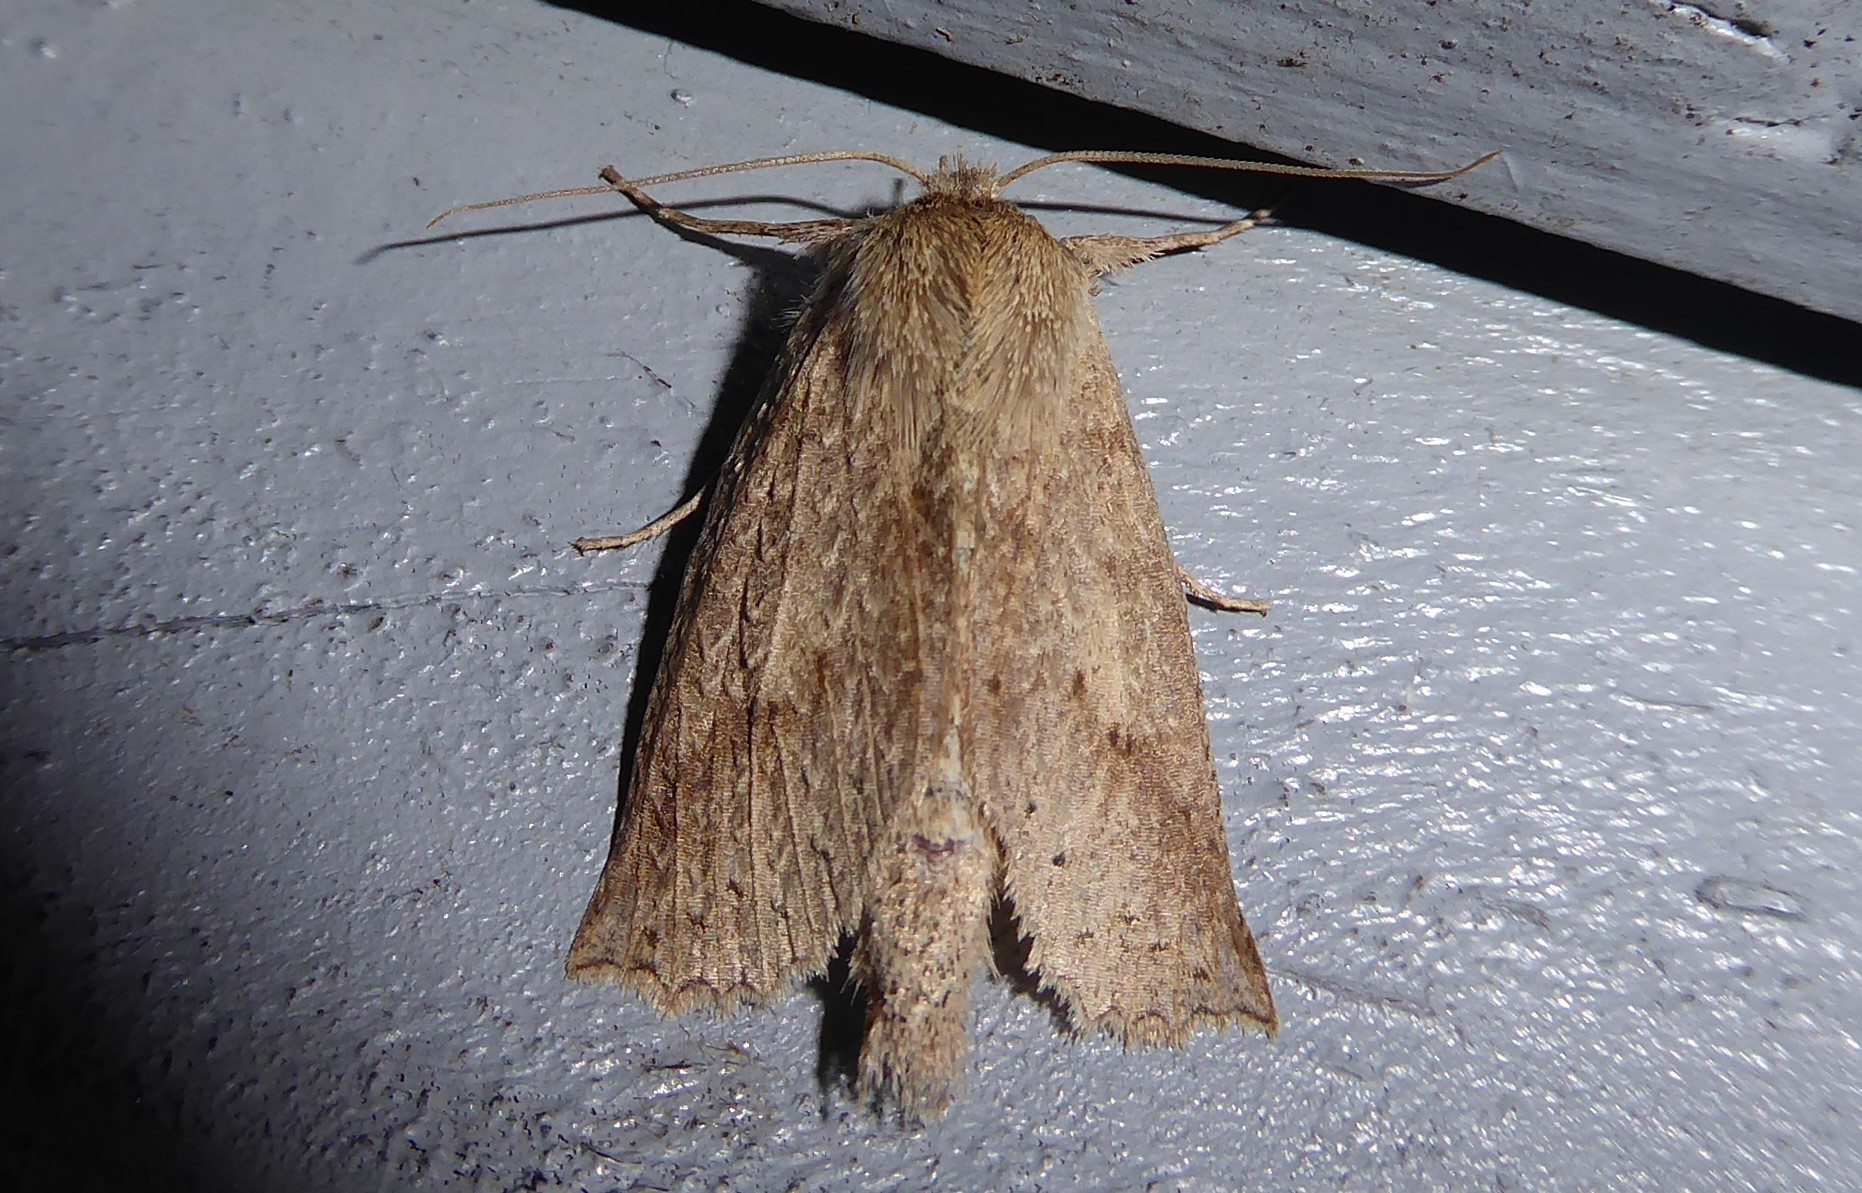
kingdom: Animalia
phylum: Arthropoda
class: Insecta
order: Lepidoptera
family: Geometridae
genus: Declana
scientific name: Declana leptomera
